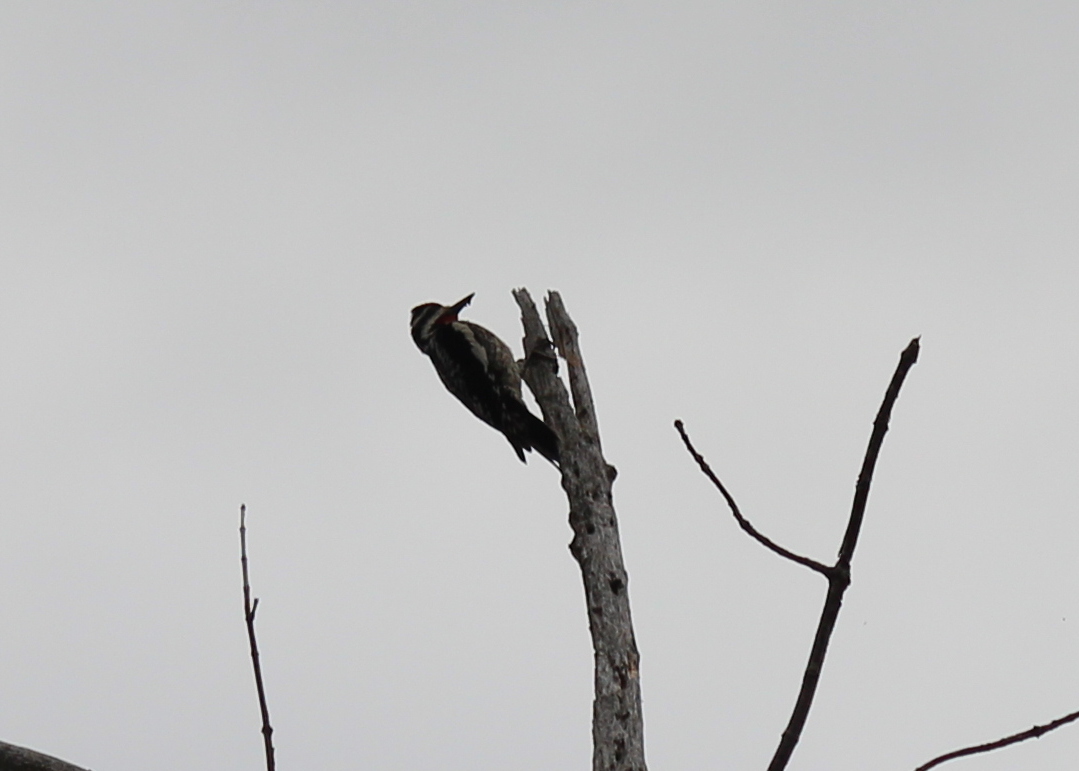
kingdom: Animalia
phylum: Chordata
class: Aves
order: Piciformes
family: Picidae
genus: Sphyrapicus
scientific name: Sphyrapicus varius
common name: Yellow-bellied sapsucker
